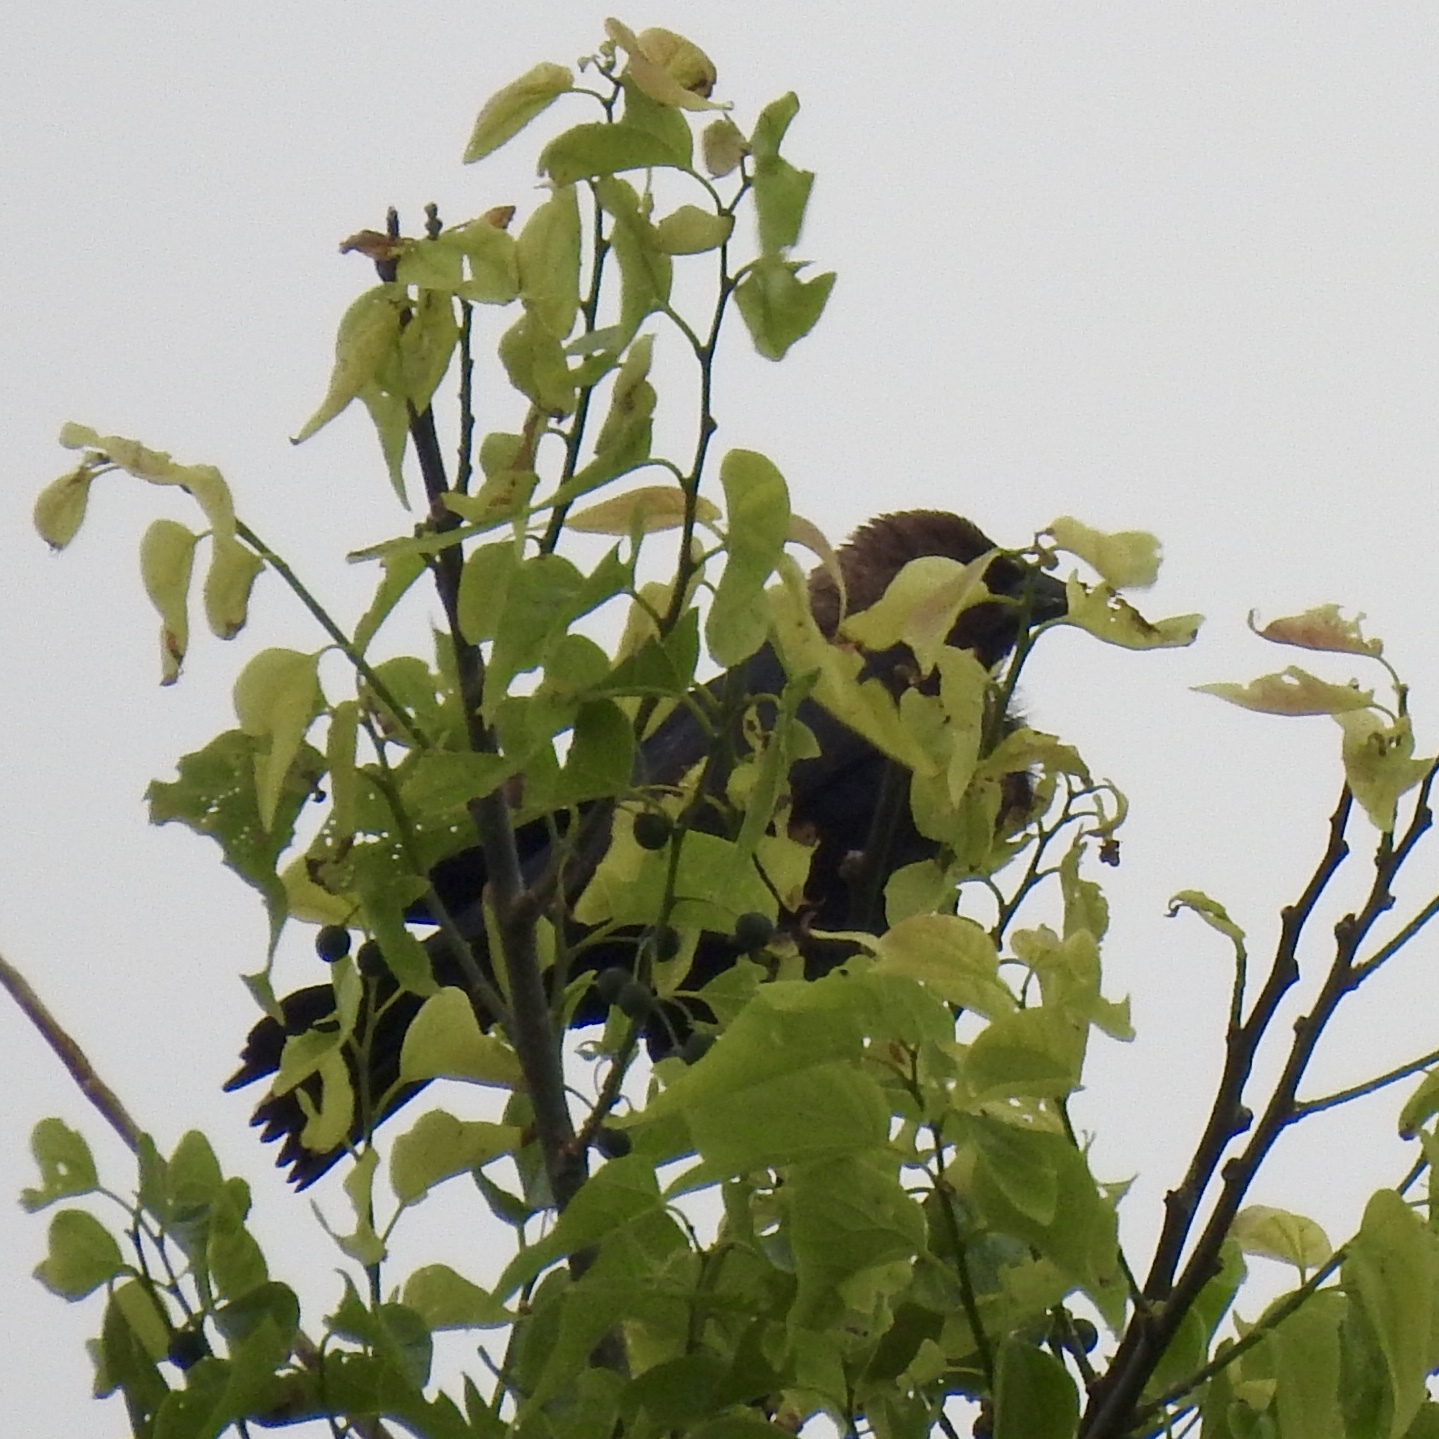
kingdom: Animalia
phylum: Chordata
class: Aves
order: Passeriformes
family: Icteridae
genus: Molothrus
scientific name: Molothrus ater
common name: Brown-headed cowbird
